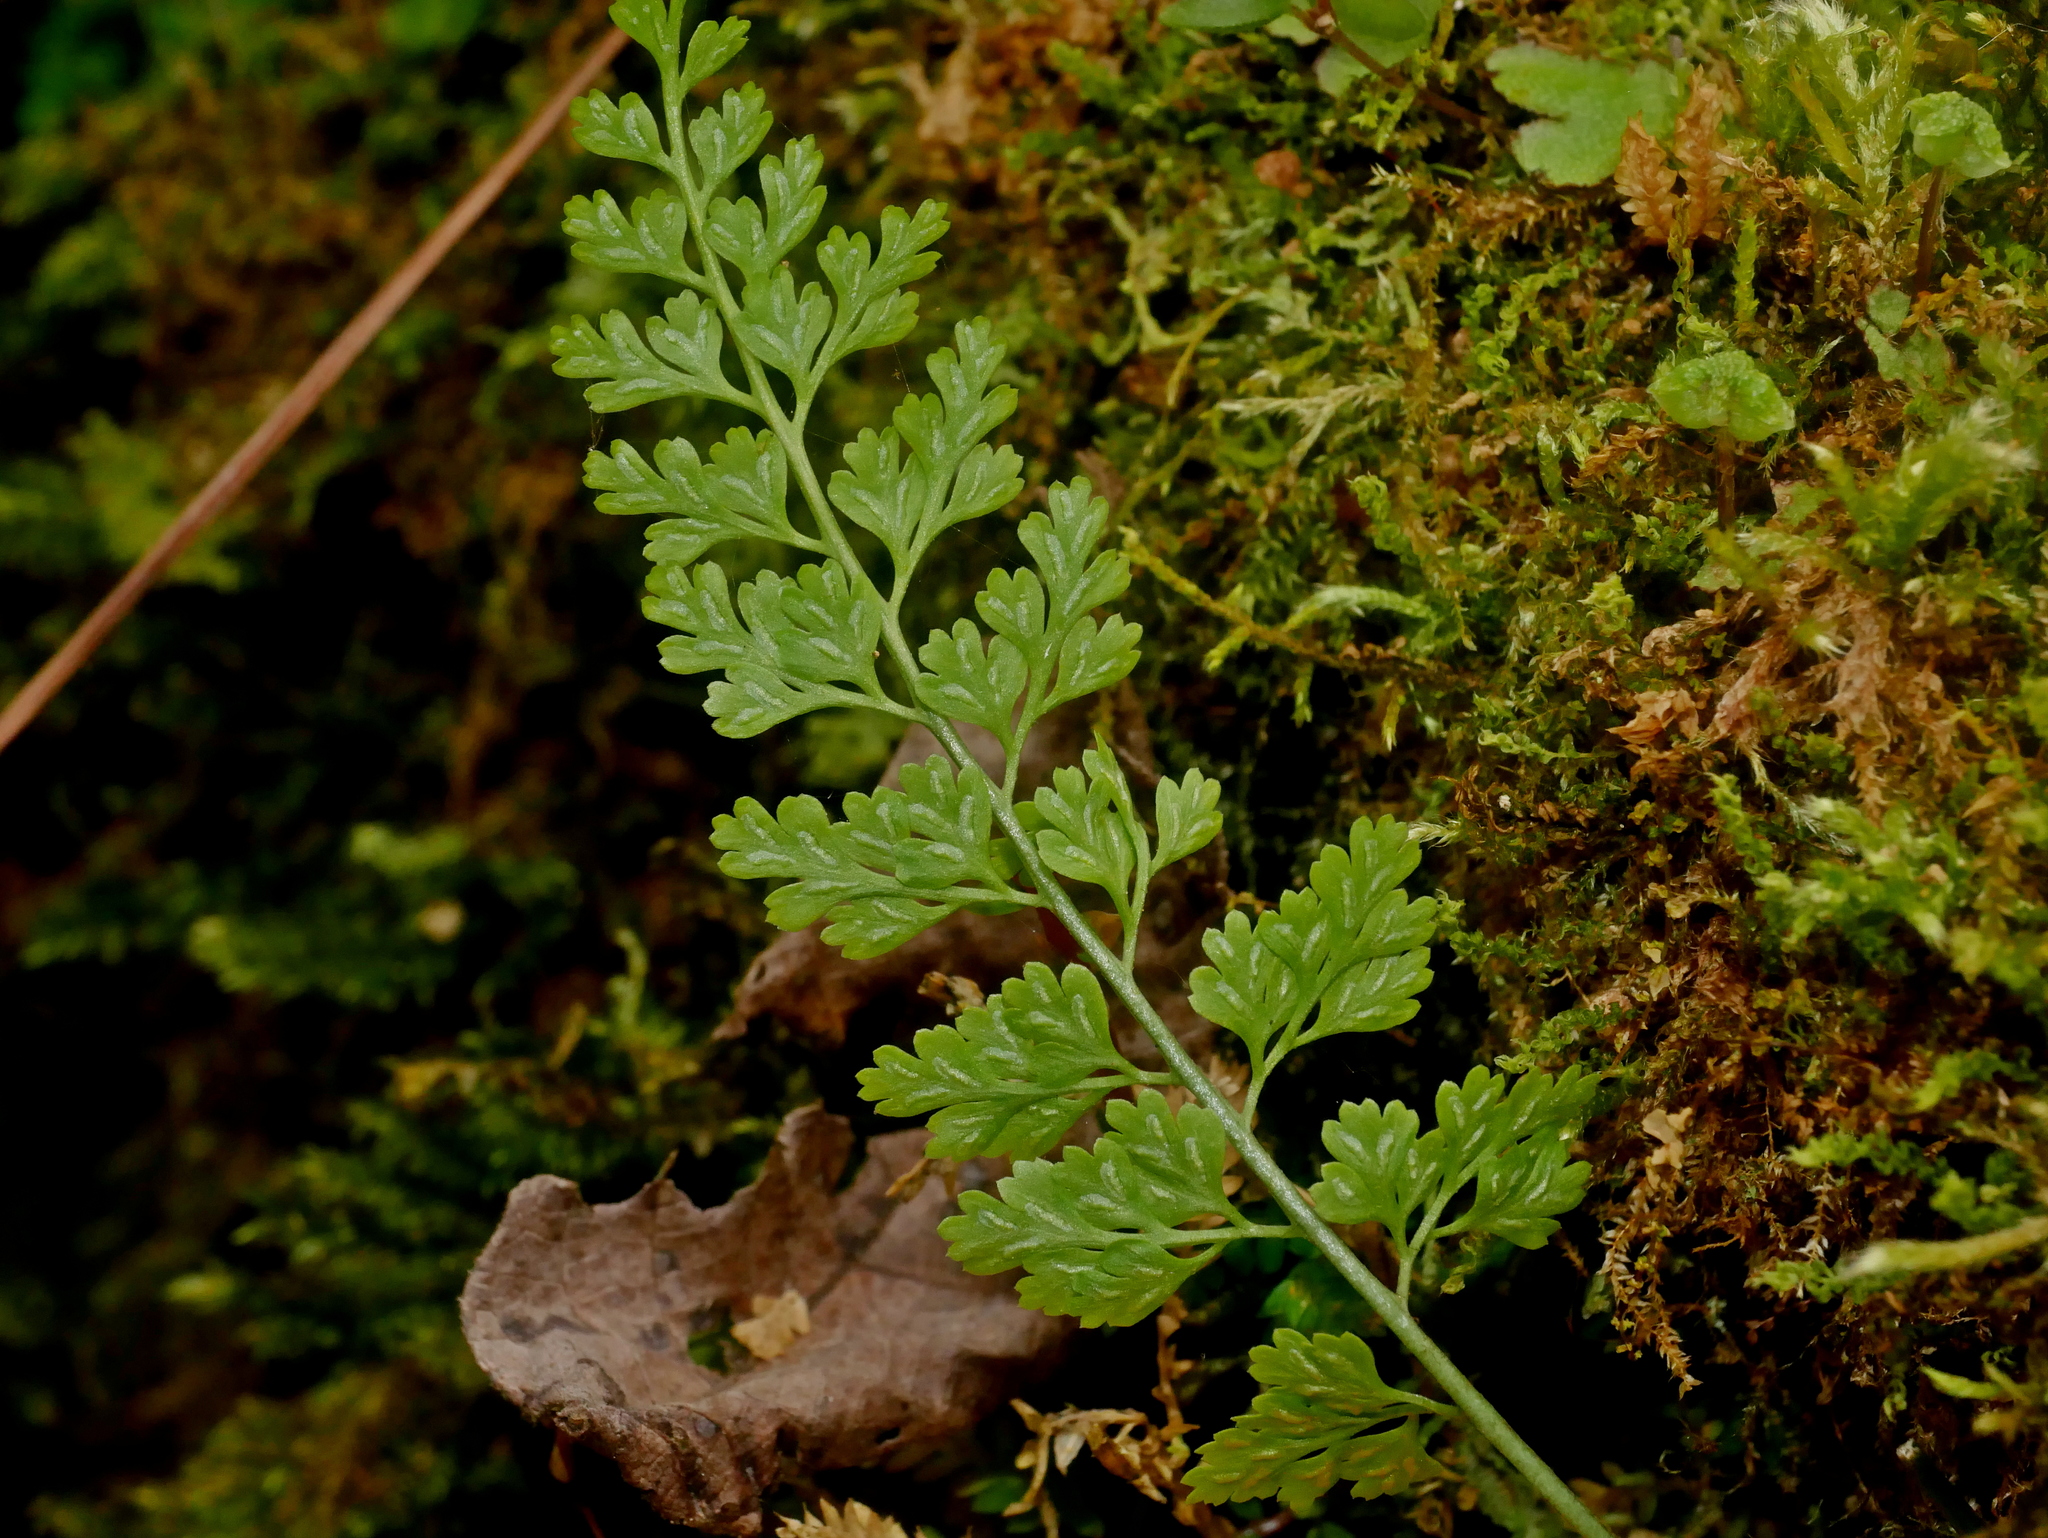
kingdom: Plantae
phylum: Tracheophyta
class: Polypodiopsida
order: Polypodiales
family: Aspleniaceae
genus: Asplenium
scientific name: Asplenium laciniatum
